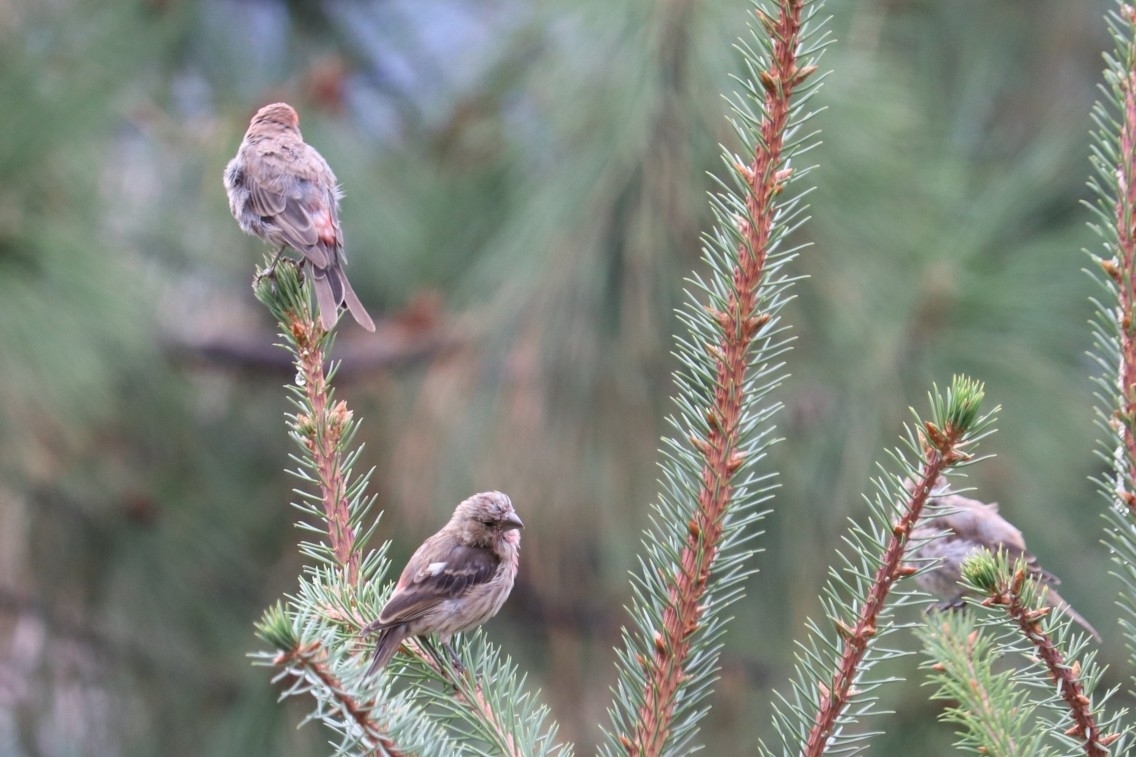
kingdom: Animalia
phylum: Chordata
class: Aves
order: Passeriformes
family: Fringillidae
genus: Haemorhous
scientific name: Haemorhous mexicanus
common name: House finch
